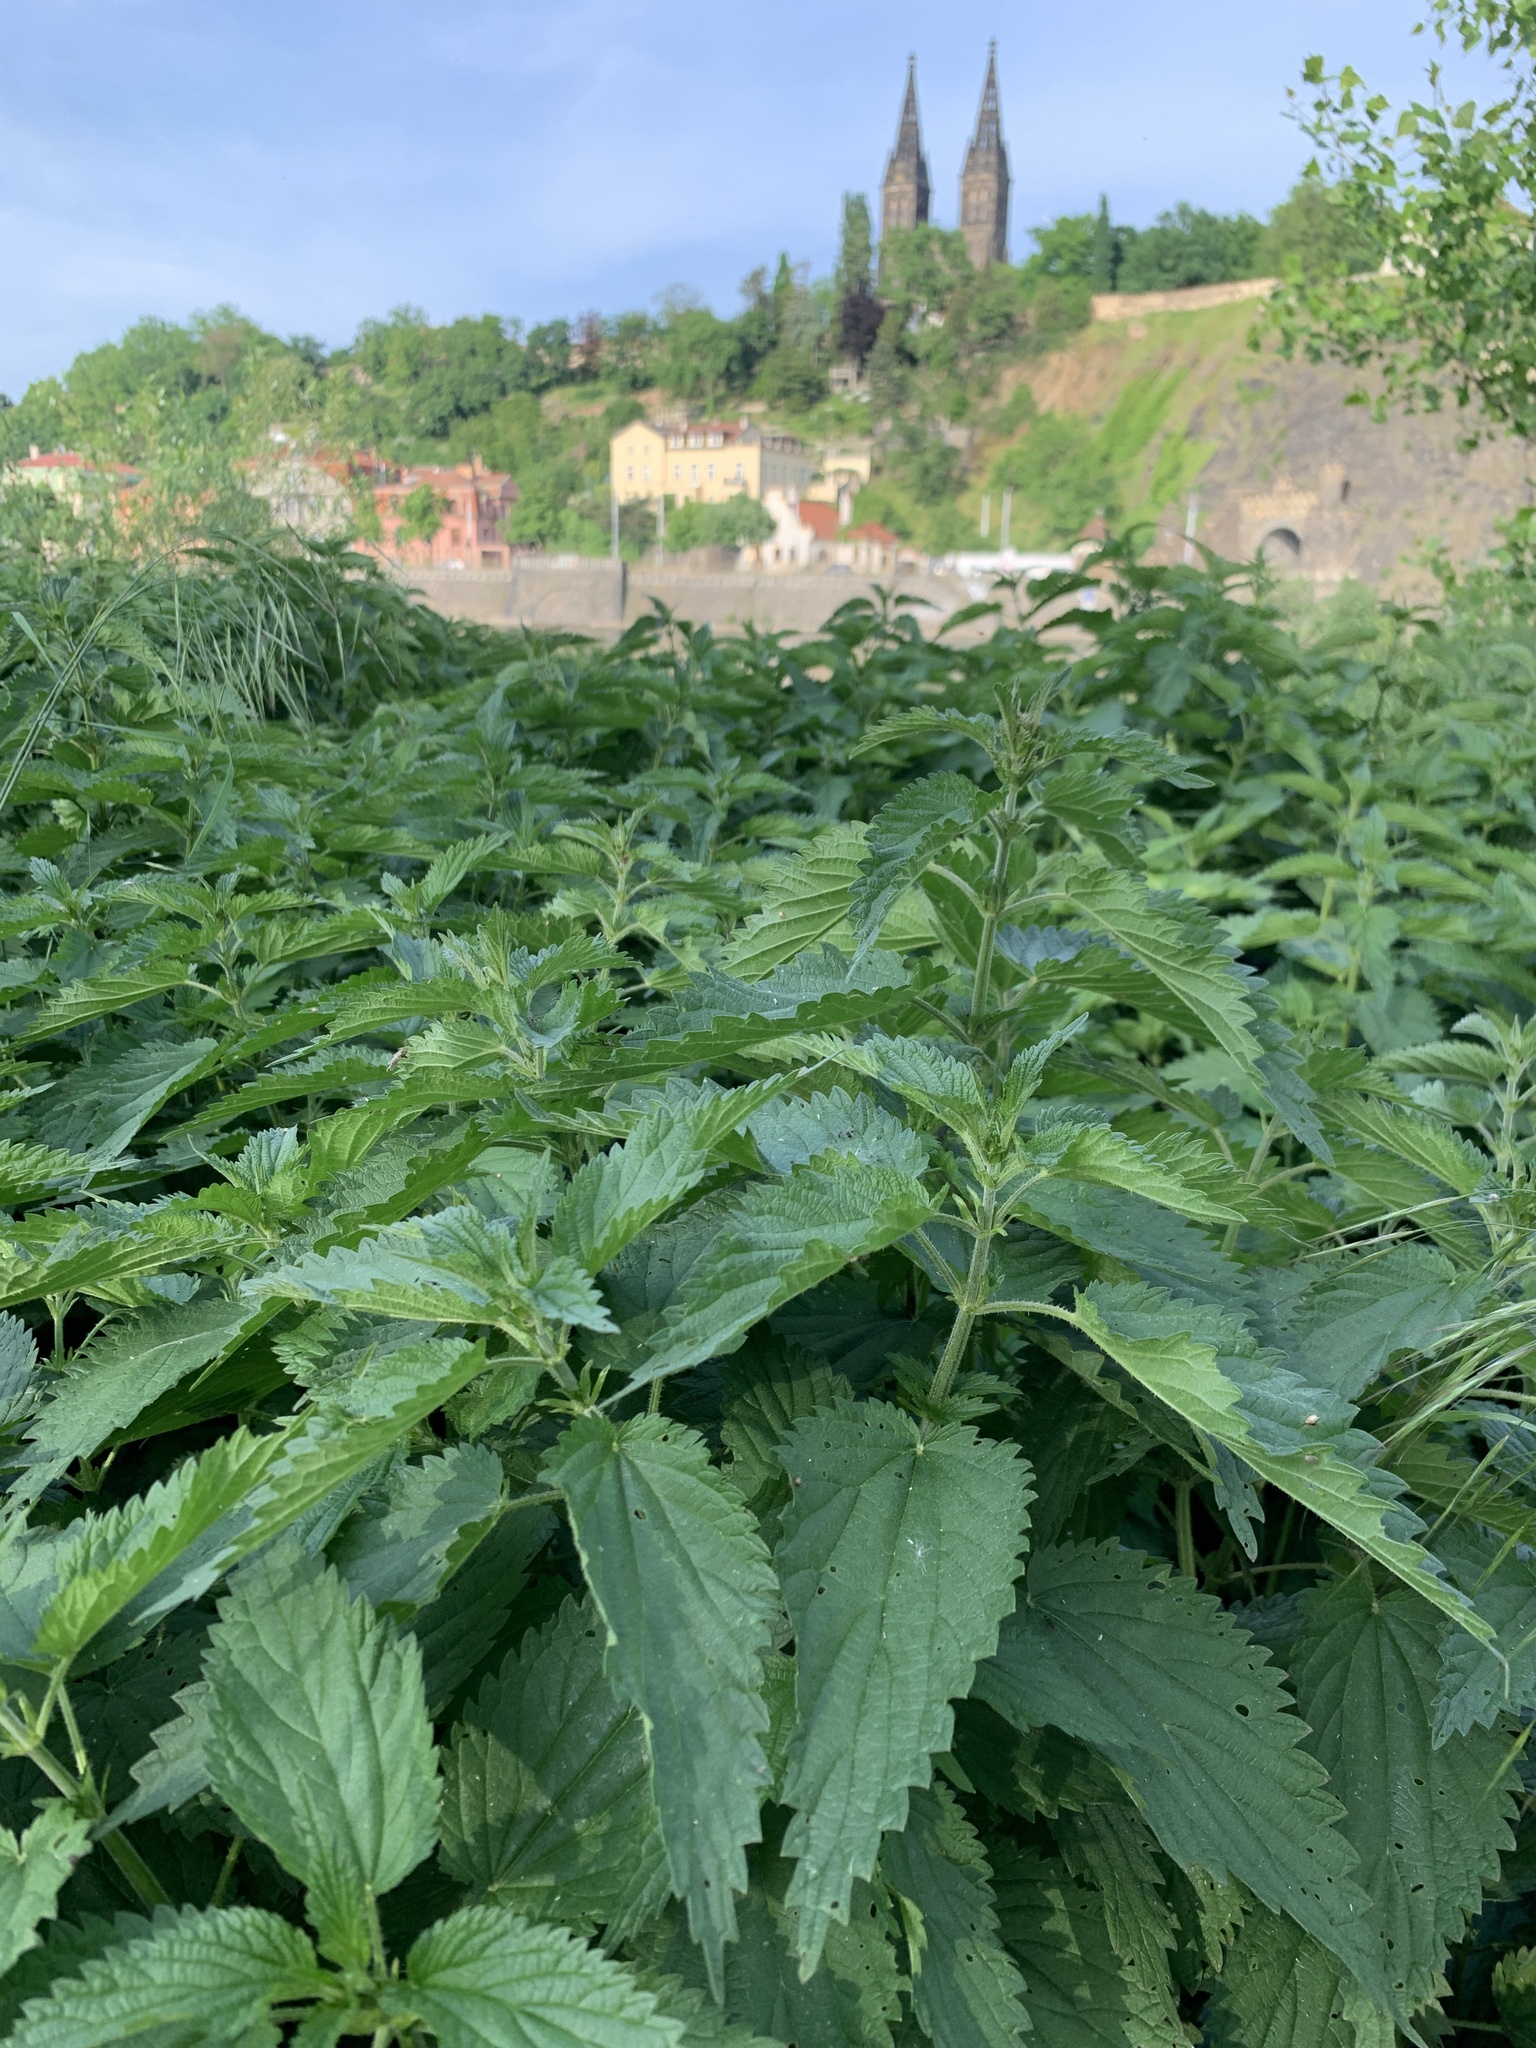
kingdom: Plantae
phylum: Tracheophyta
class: Magnoliopsida
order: Rosales
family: Urticaceae
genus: Urtica
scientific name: Urtica dioica
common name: Common nettle
